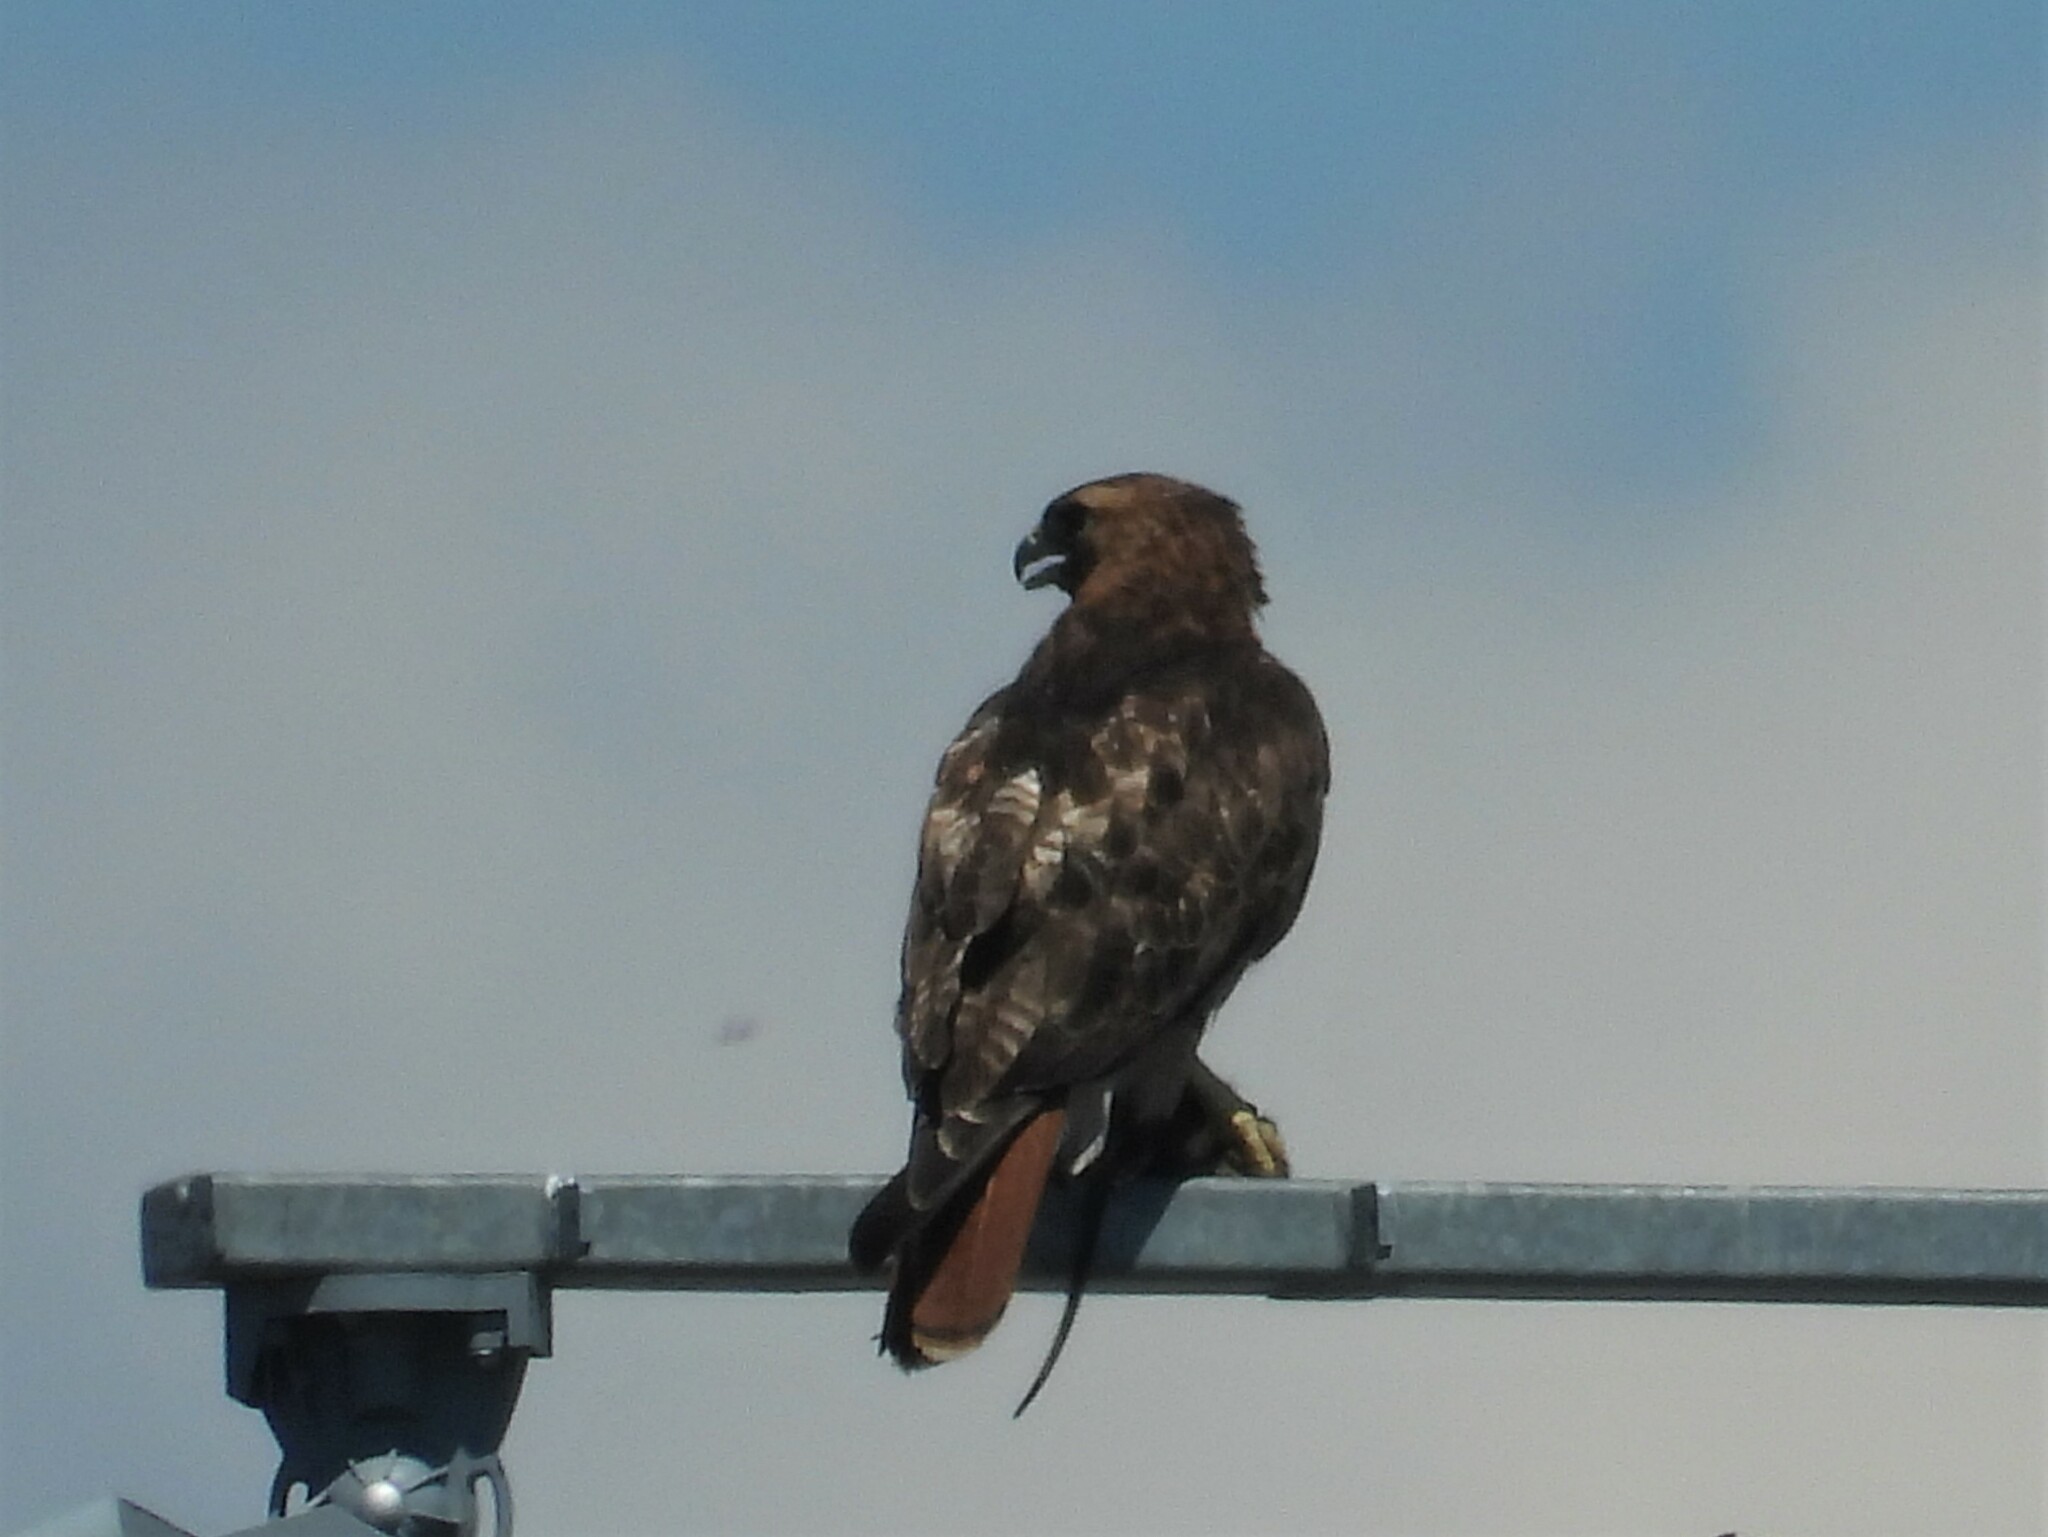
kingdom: Animalia
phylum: Chordata
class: Aves
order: Accipitriformes
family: Accipitridae
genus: Buteo
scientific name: Buteo jamaicensis
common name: Red-tailed hawk
